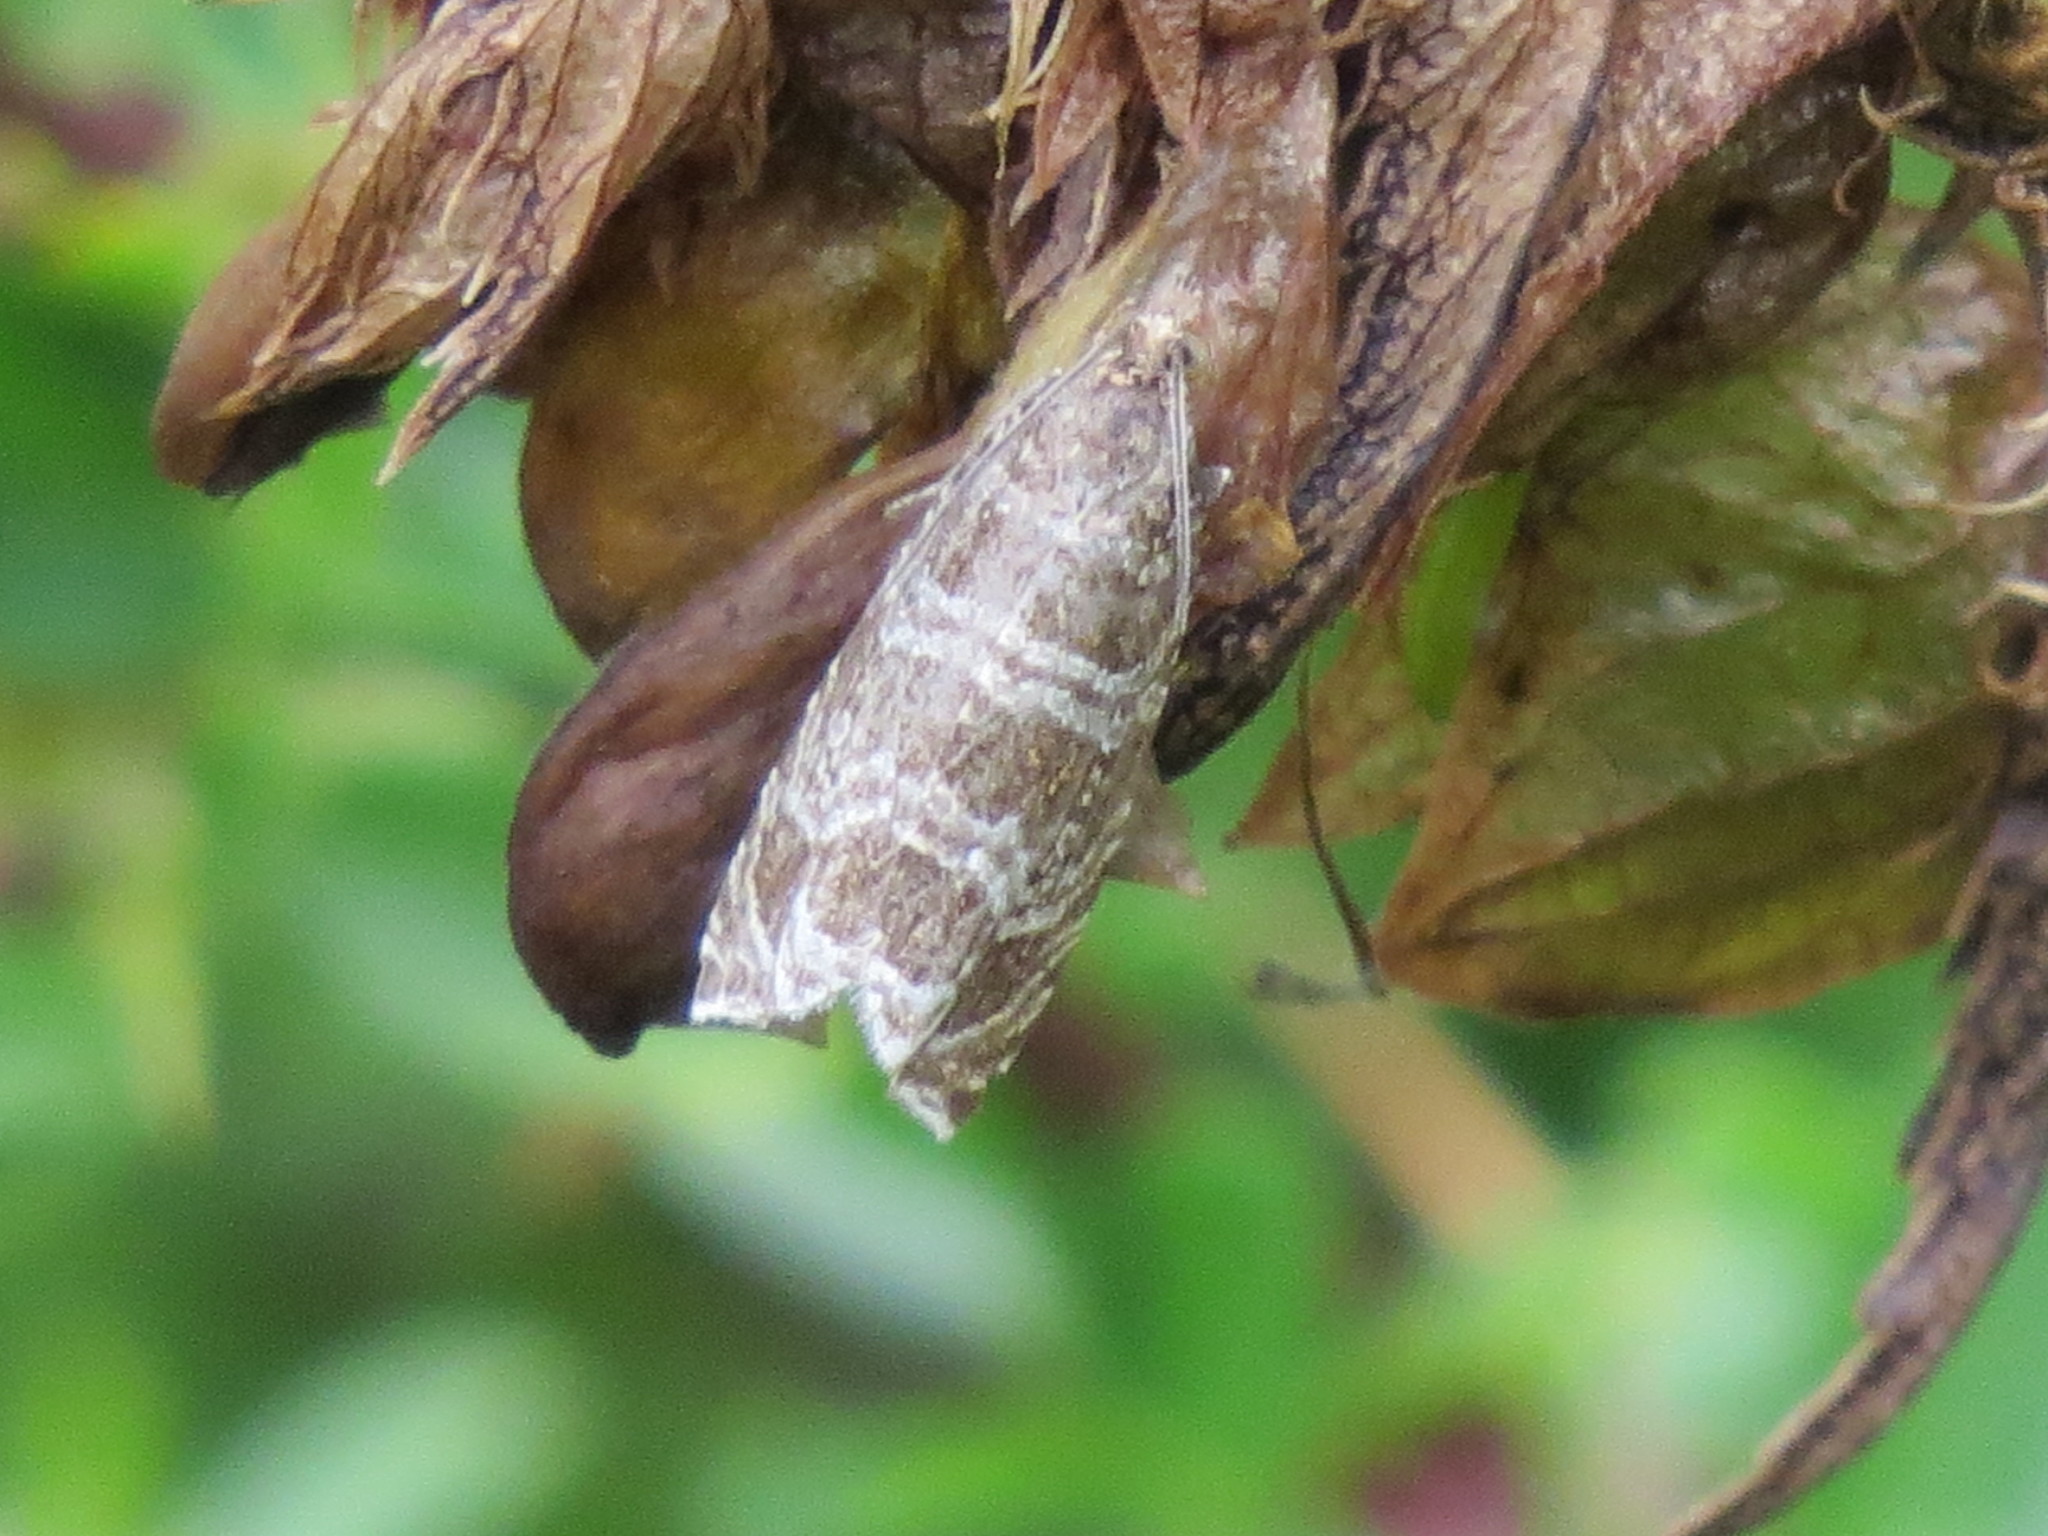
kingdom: Animalia
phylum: Arthropoda
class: Insecta
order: Lepidoptera
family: Tortricidae
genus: Syricoris
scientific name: Syricoris rivulana
